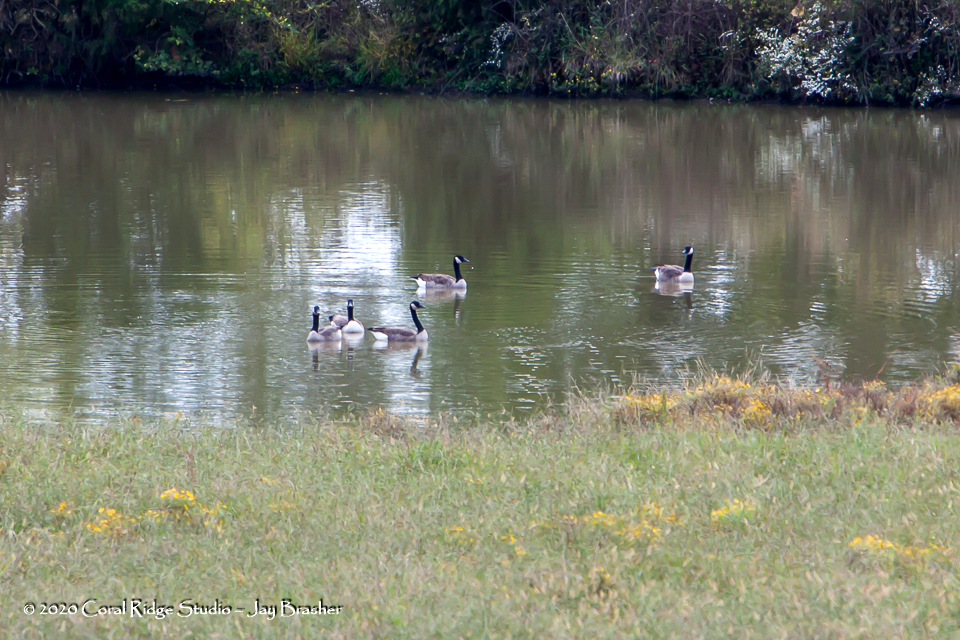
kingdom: Animalia
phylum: Chordata
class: Aves
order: Anseriformes
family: Anatidae
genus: Branta
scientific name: Branta canadensis
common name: Canada goose
